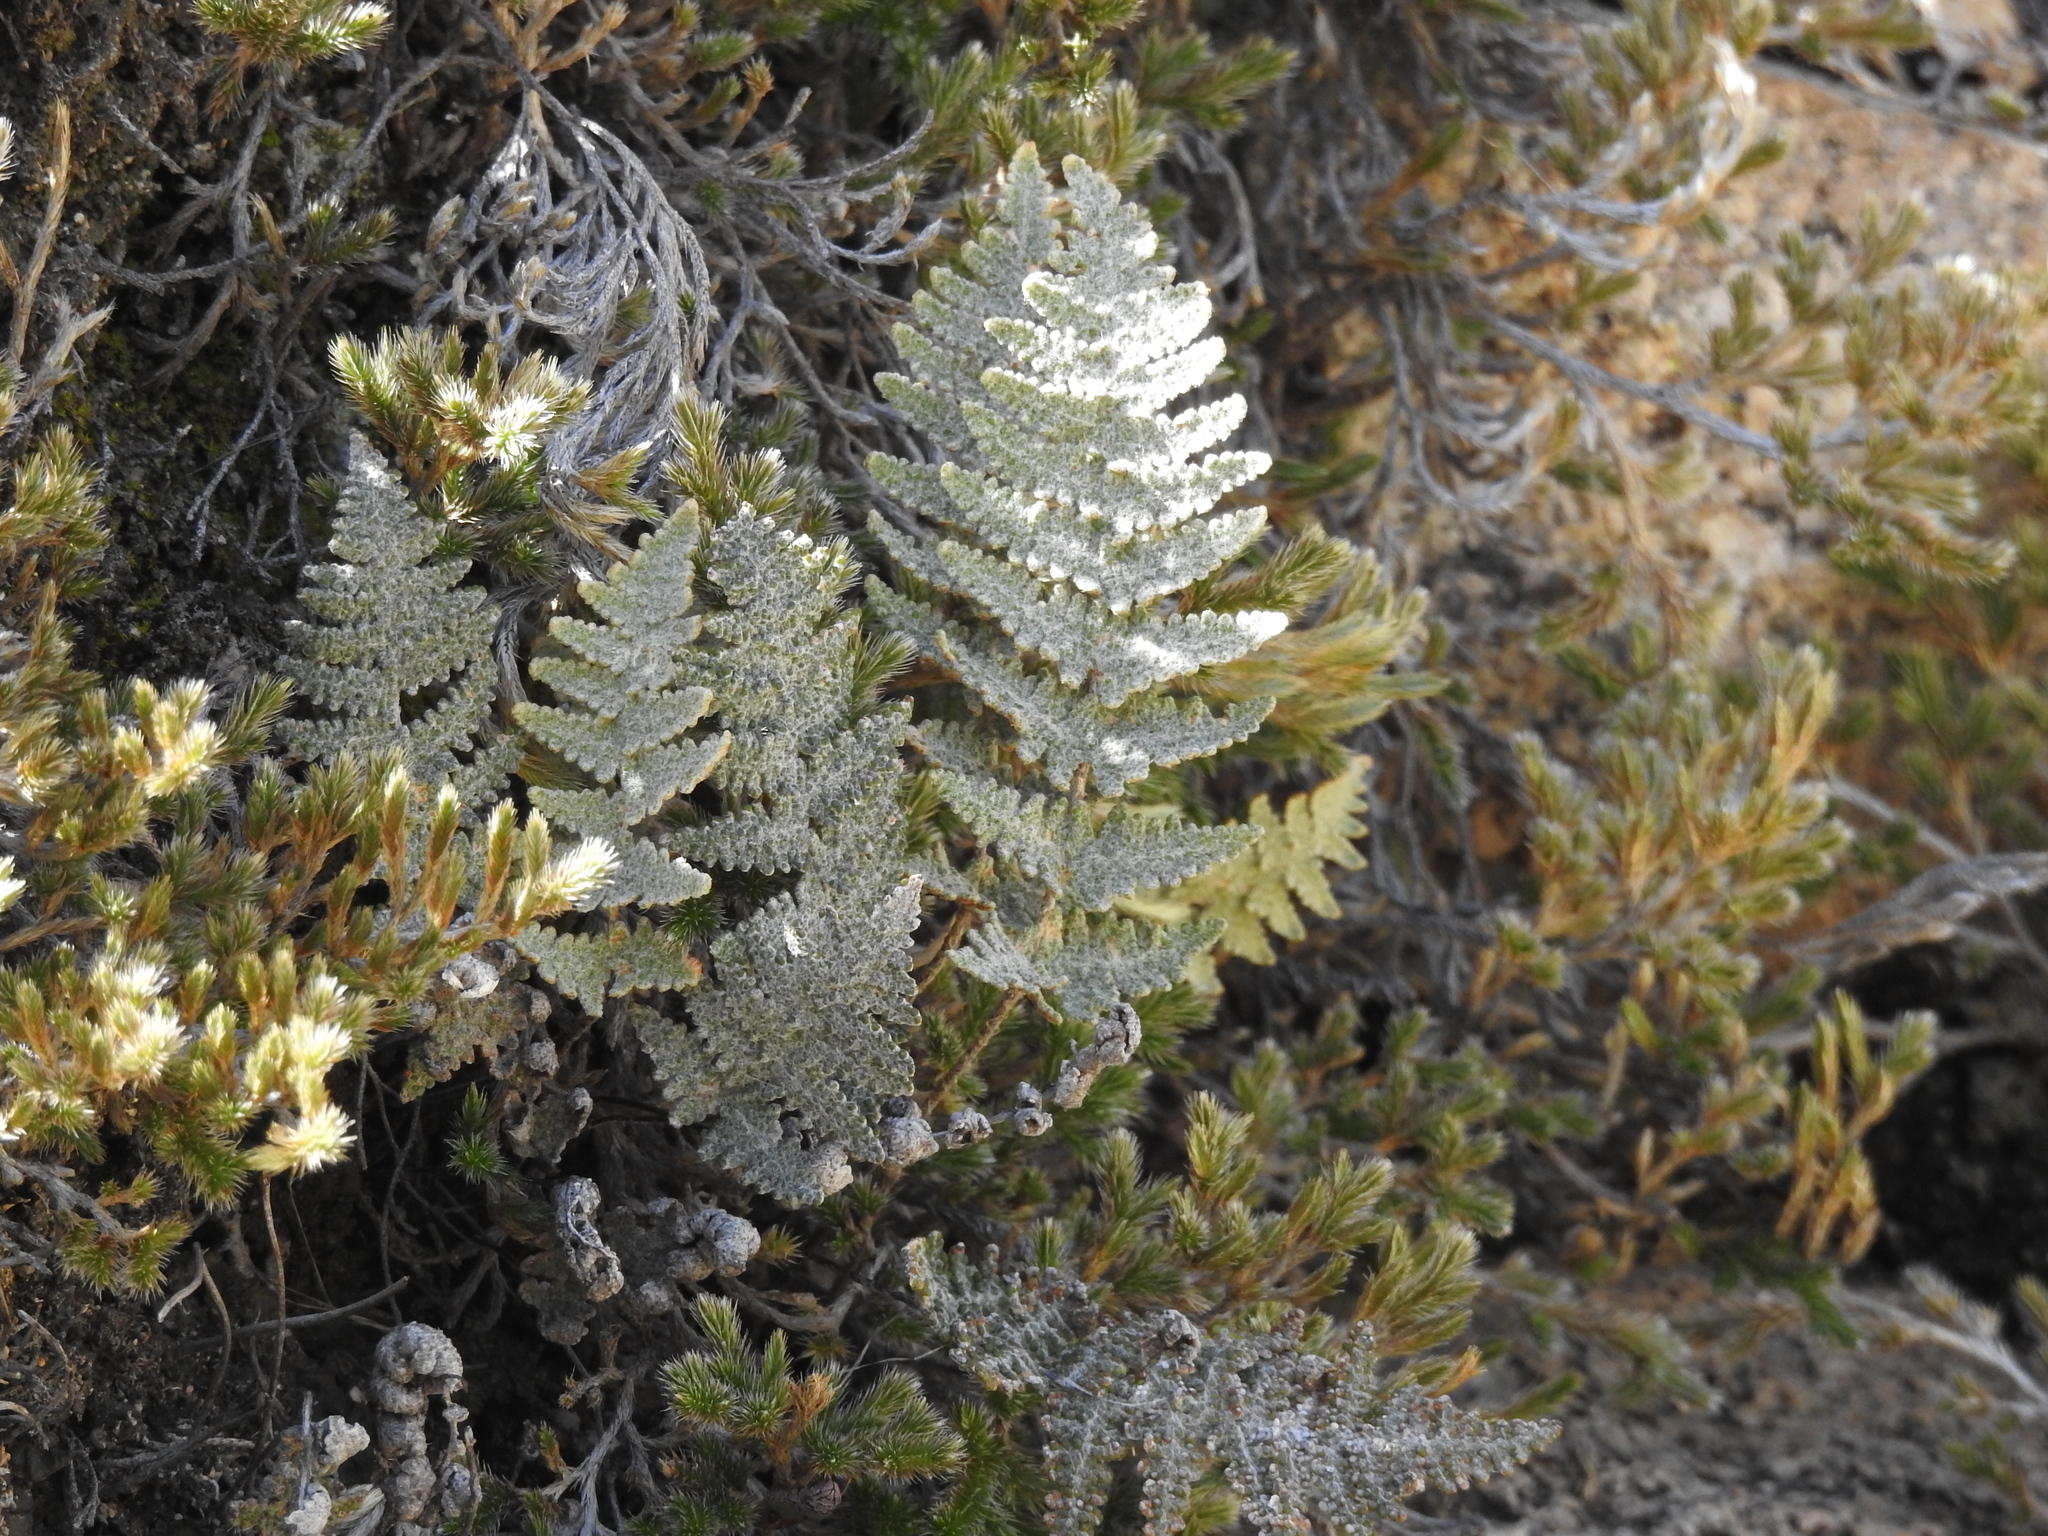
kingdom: Plantae
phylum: Tracheophyta
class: Polypodiopsida
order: Polypodiales
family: Pteridaceae
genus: Myriopteris
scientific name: Myriopteris lindheimeri
